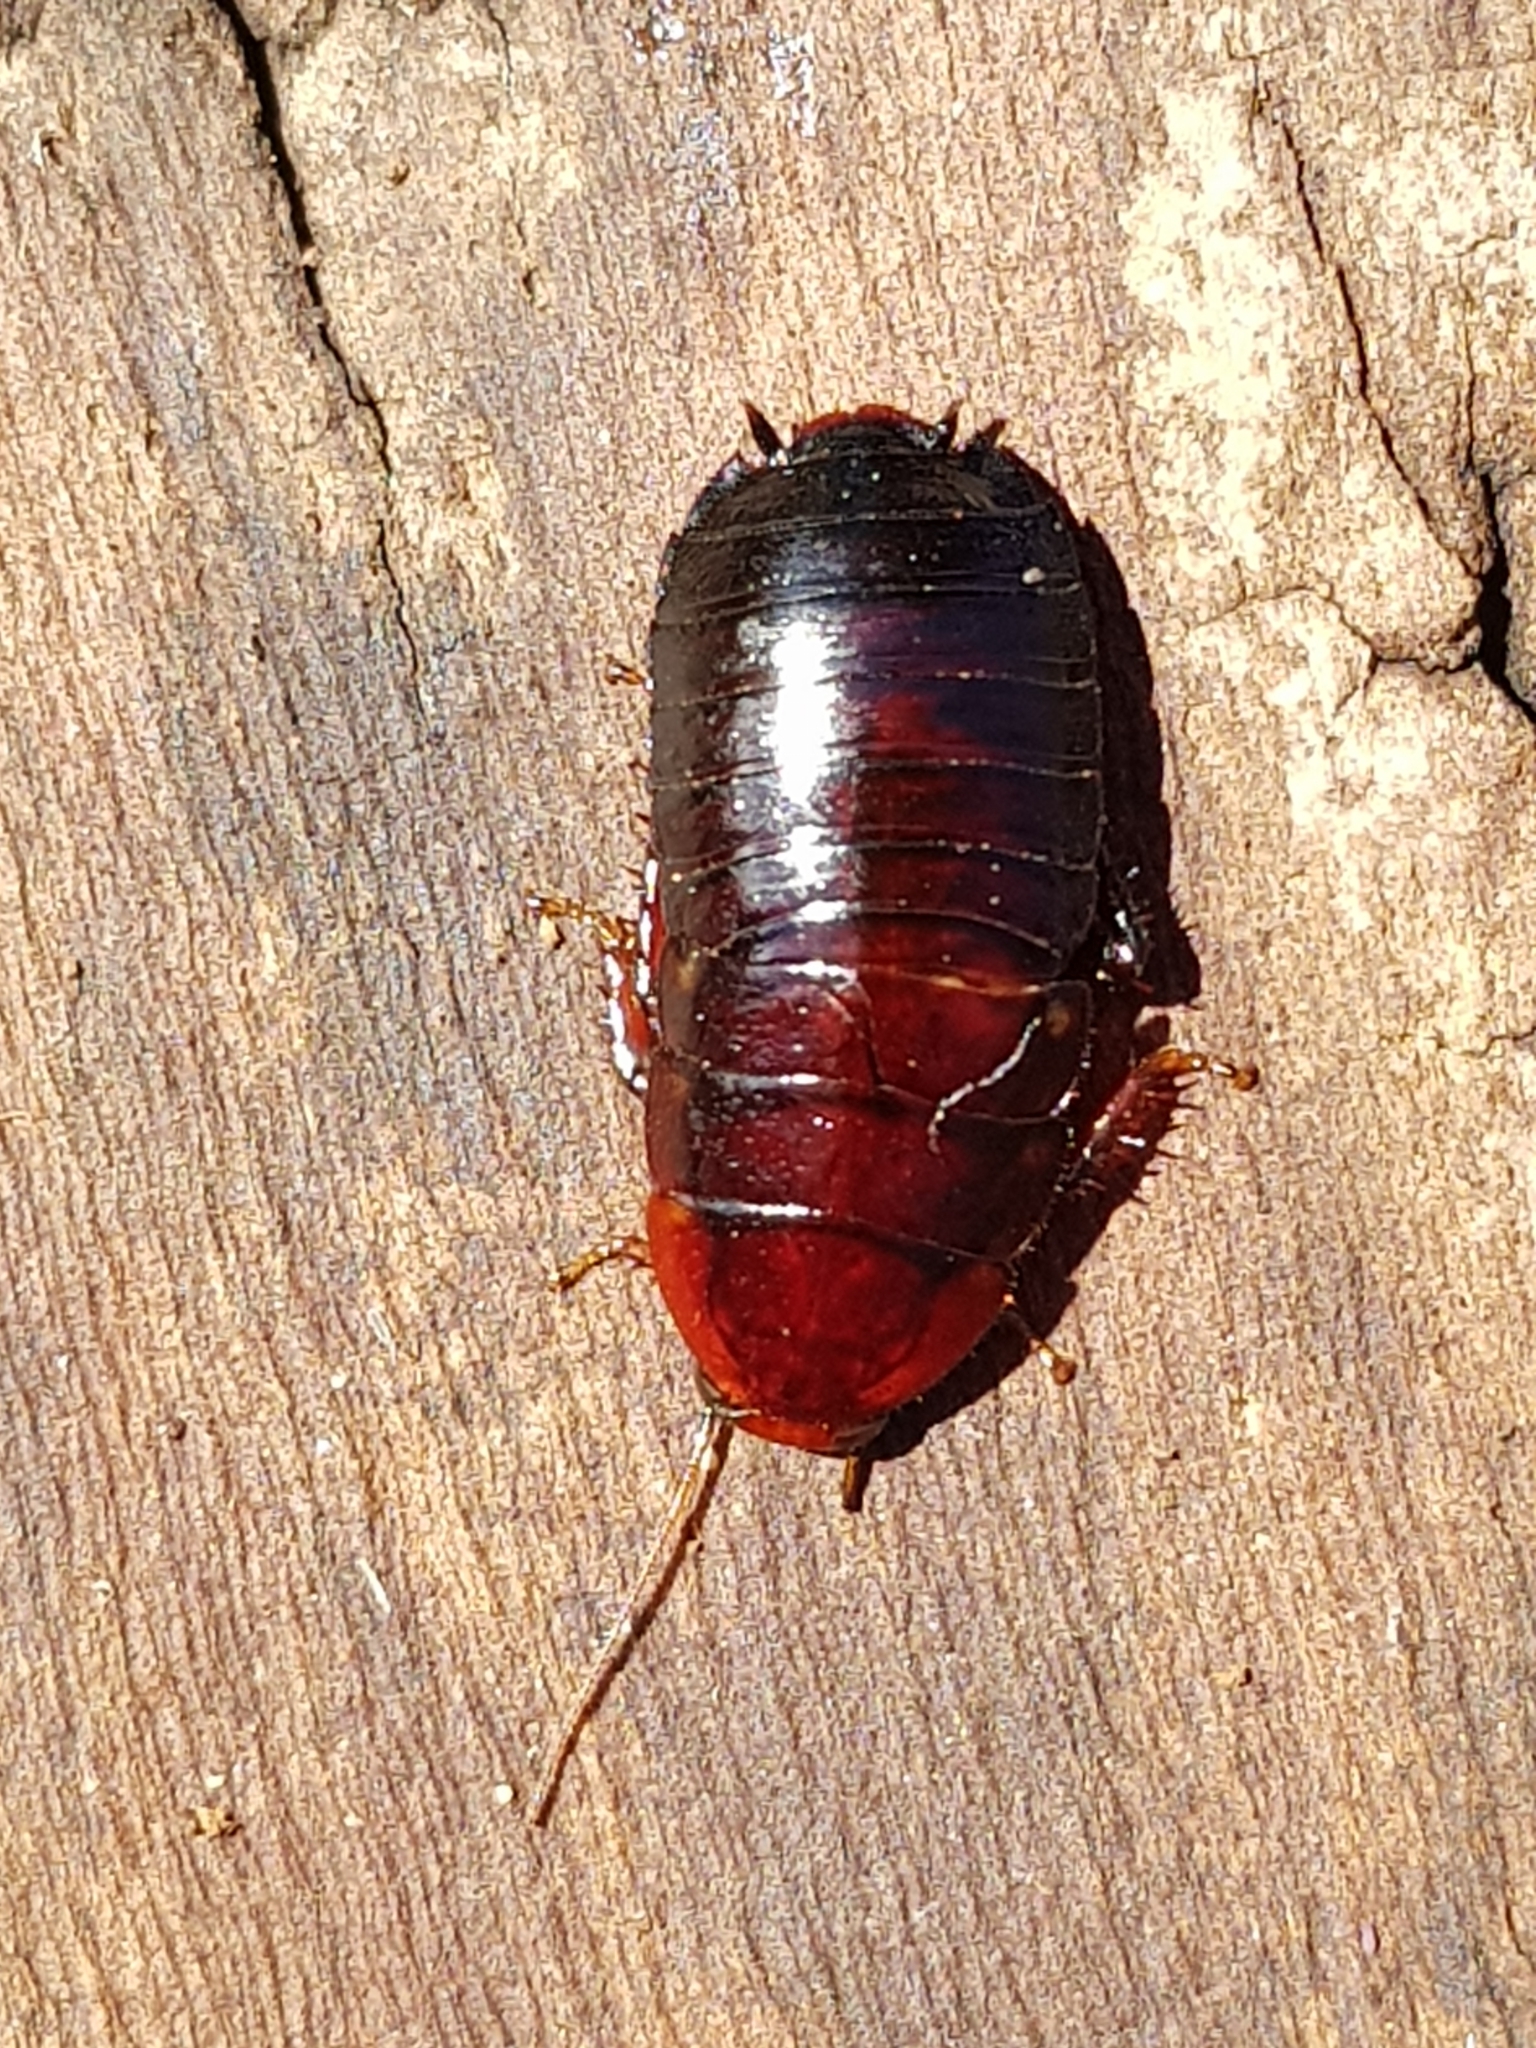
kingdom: Animalia
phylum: Arthropoda
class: Insecta
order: Blattodea
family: Blattidae
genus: Platyzosteria
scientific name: Platyzosteria melanaria
